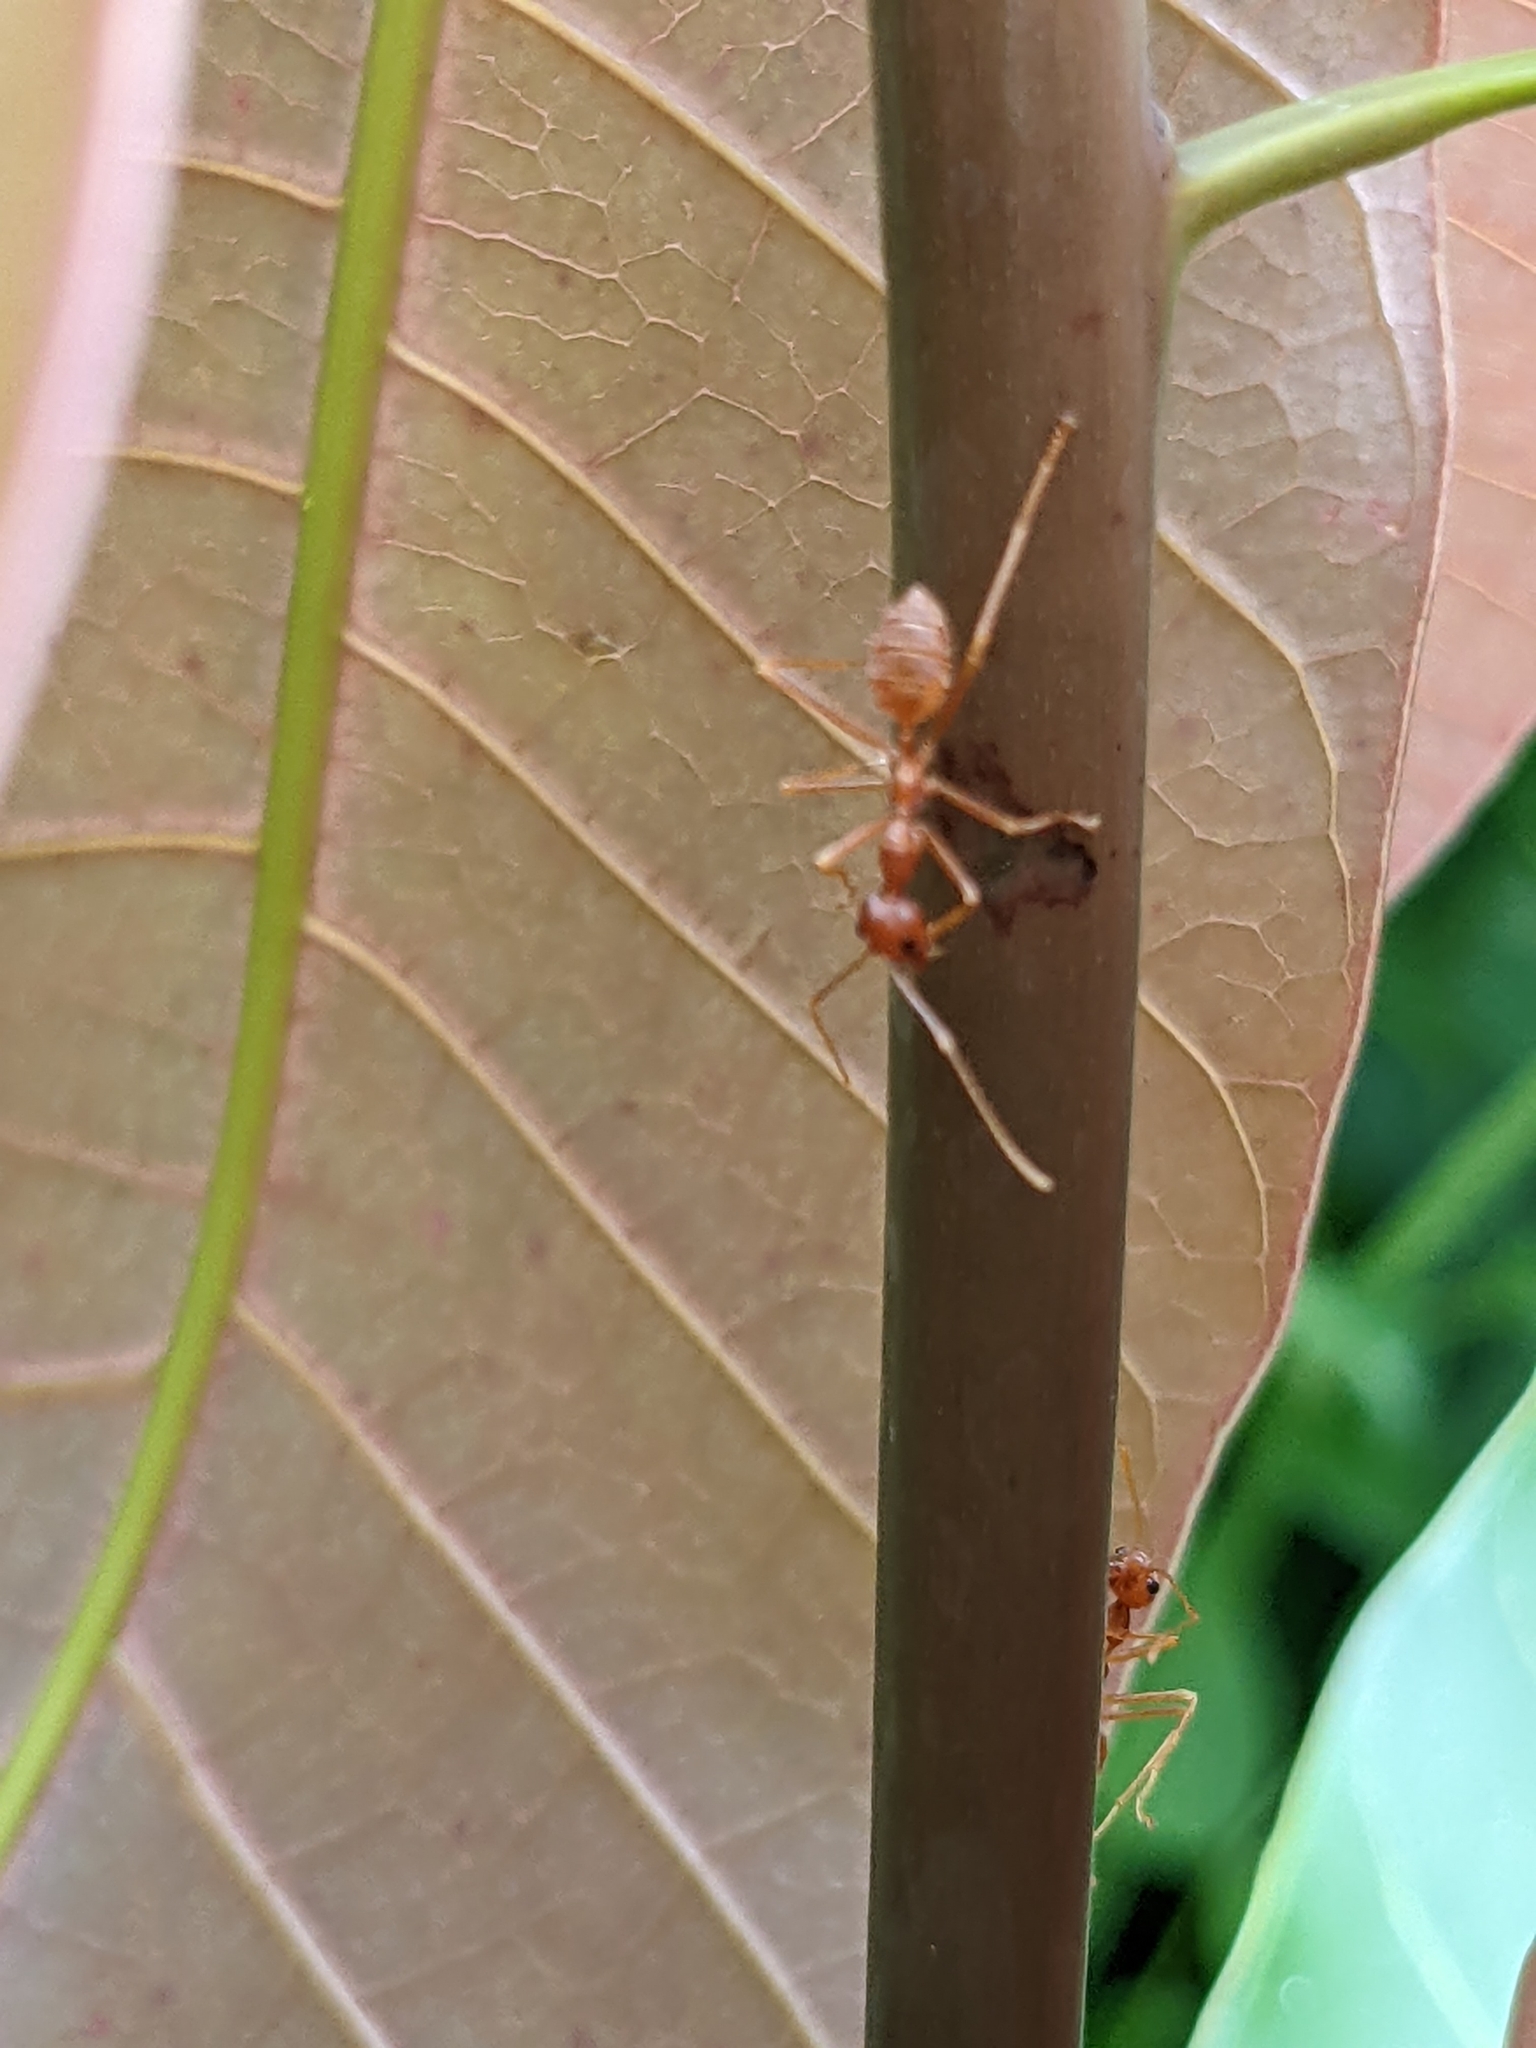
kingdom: Animalia
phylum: Arthropoda
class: Insecta
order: Hymenoptera
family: Formicidae
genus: Oecophylla
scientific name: Oecophylla longinoda
